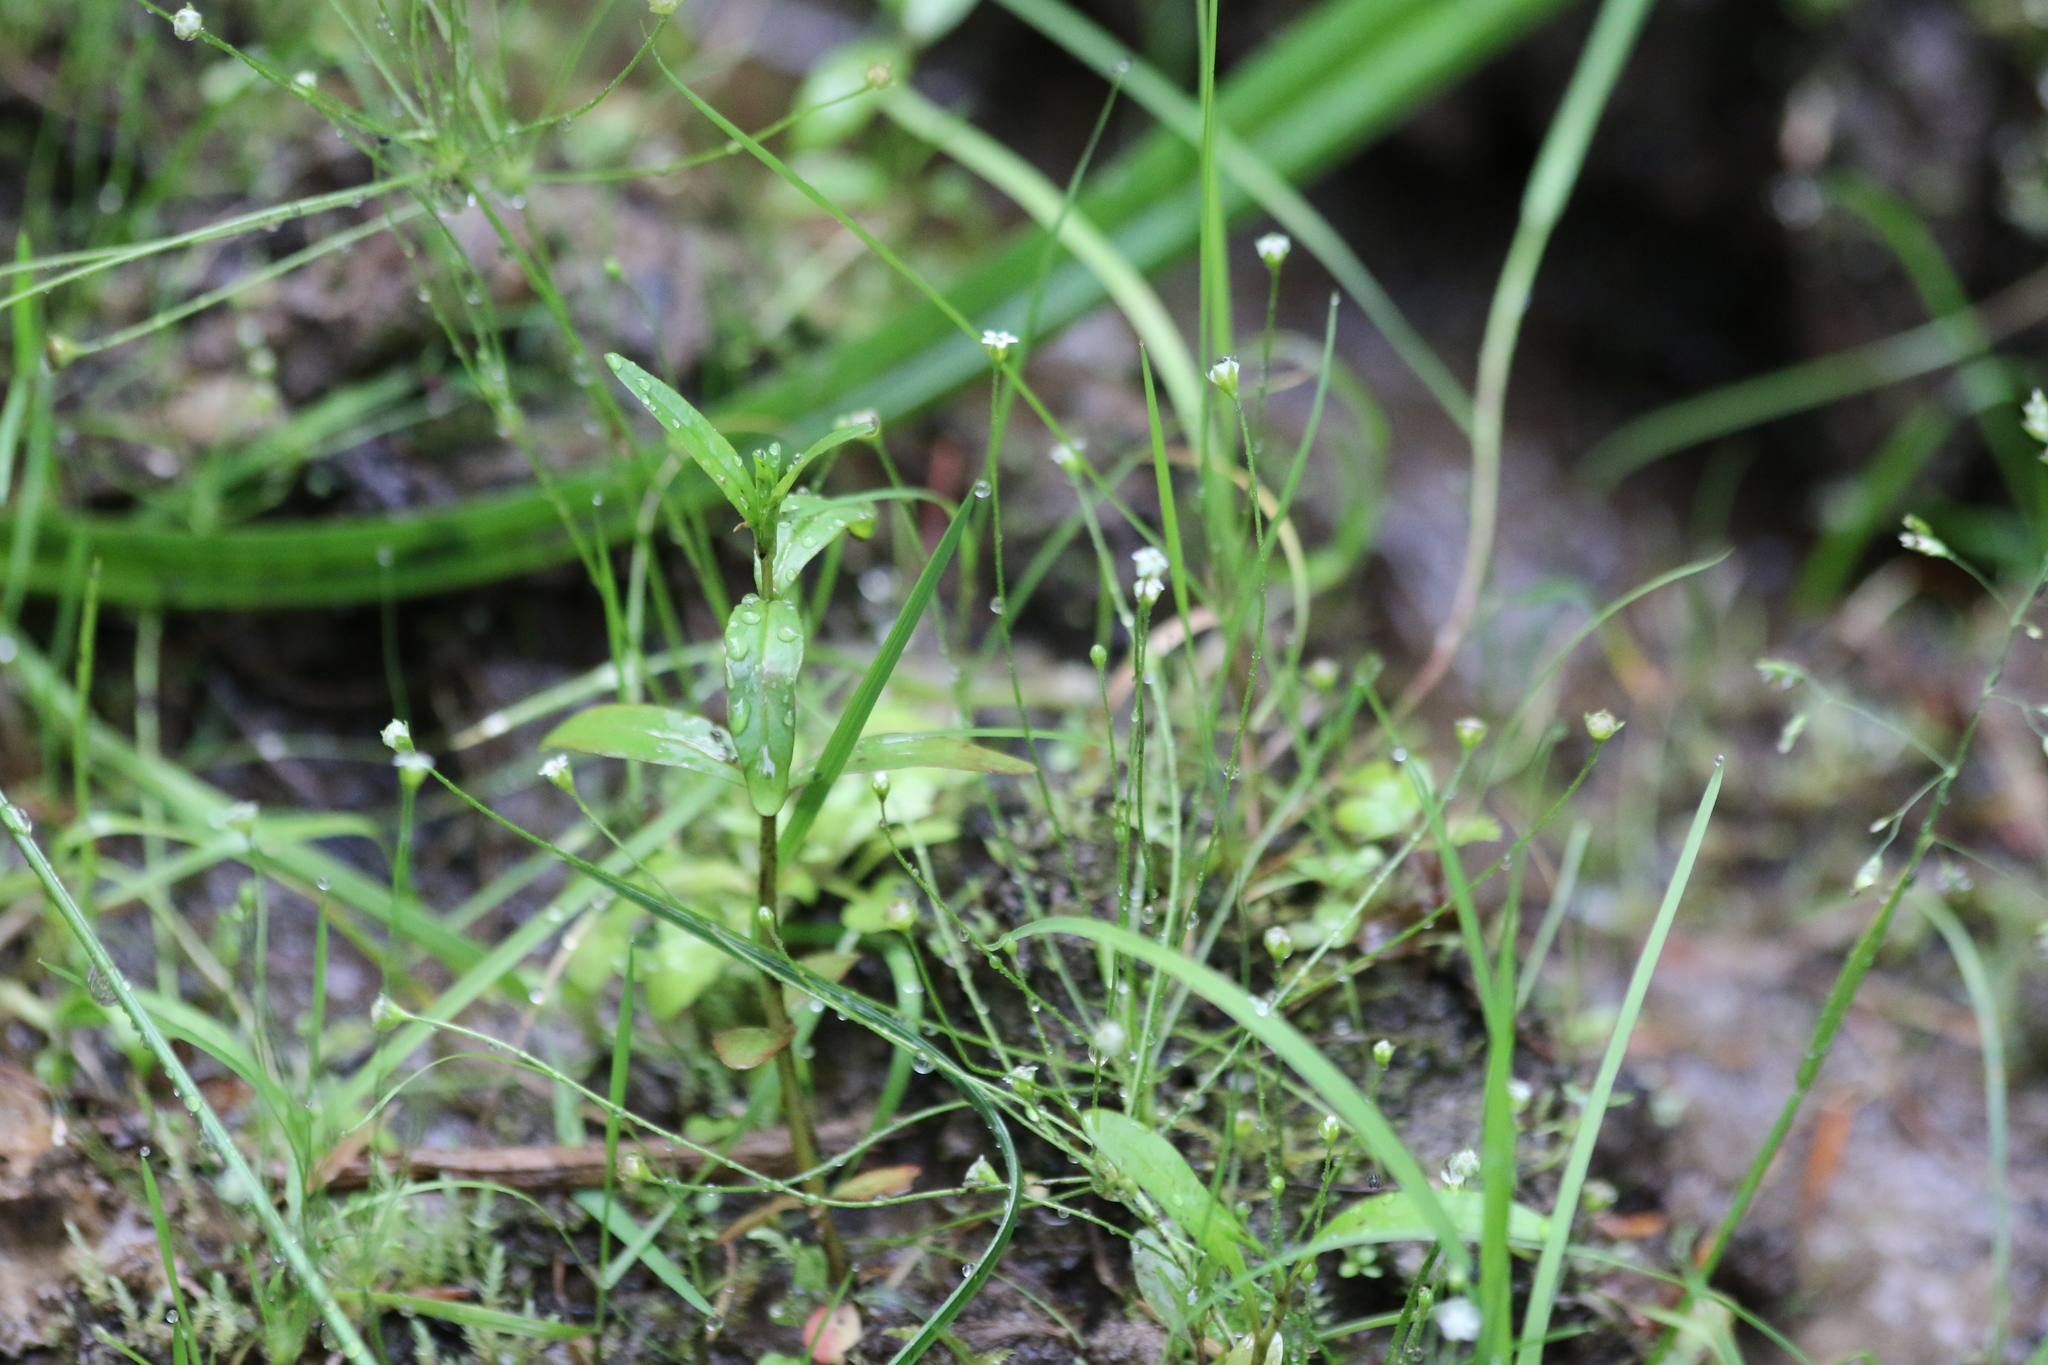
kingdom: Plantae
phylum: Tracheophyta
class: Magnoliopsida
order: Ericales
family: Primulaceae
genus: Androsace
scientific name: Androsace filiformis
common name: Filiform rock jasmine
